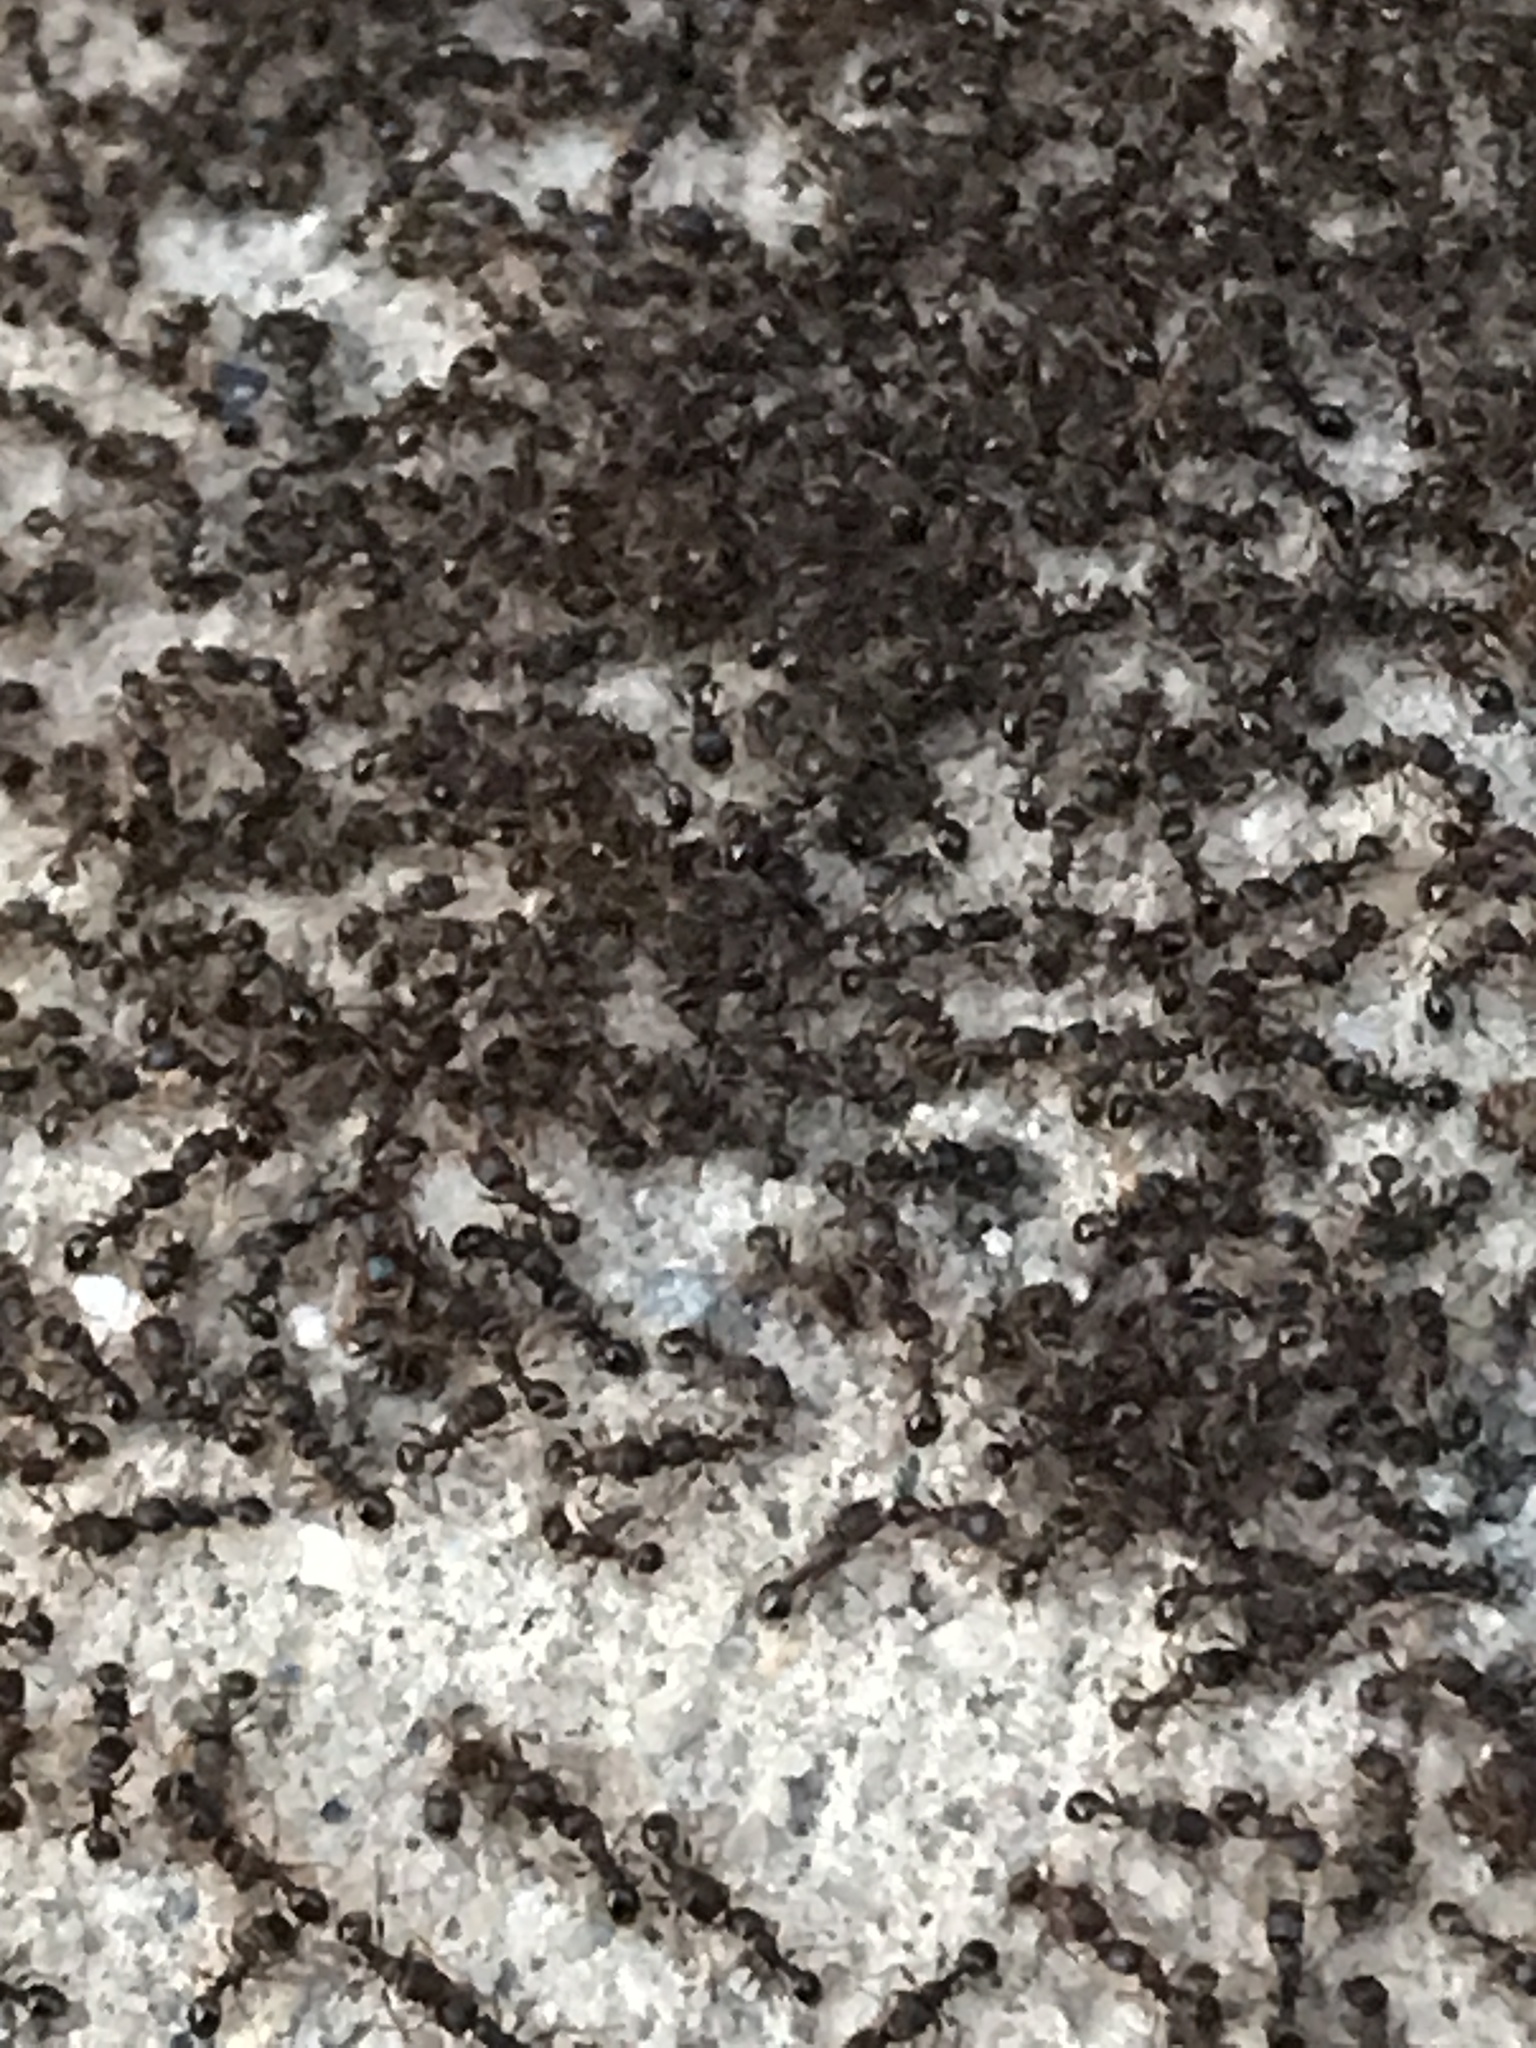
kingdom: Animalia
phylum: Arthropoda
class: Insecta
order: Hymenoptera
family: Formicidae
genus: Tetramorium
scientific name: Tetramorium immigrans
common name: Pavement ant
